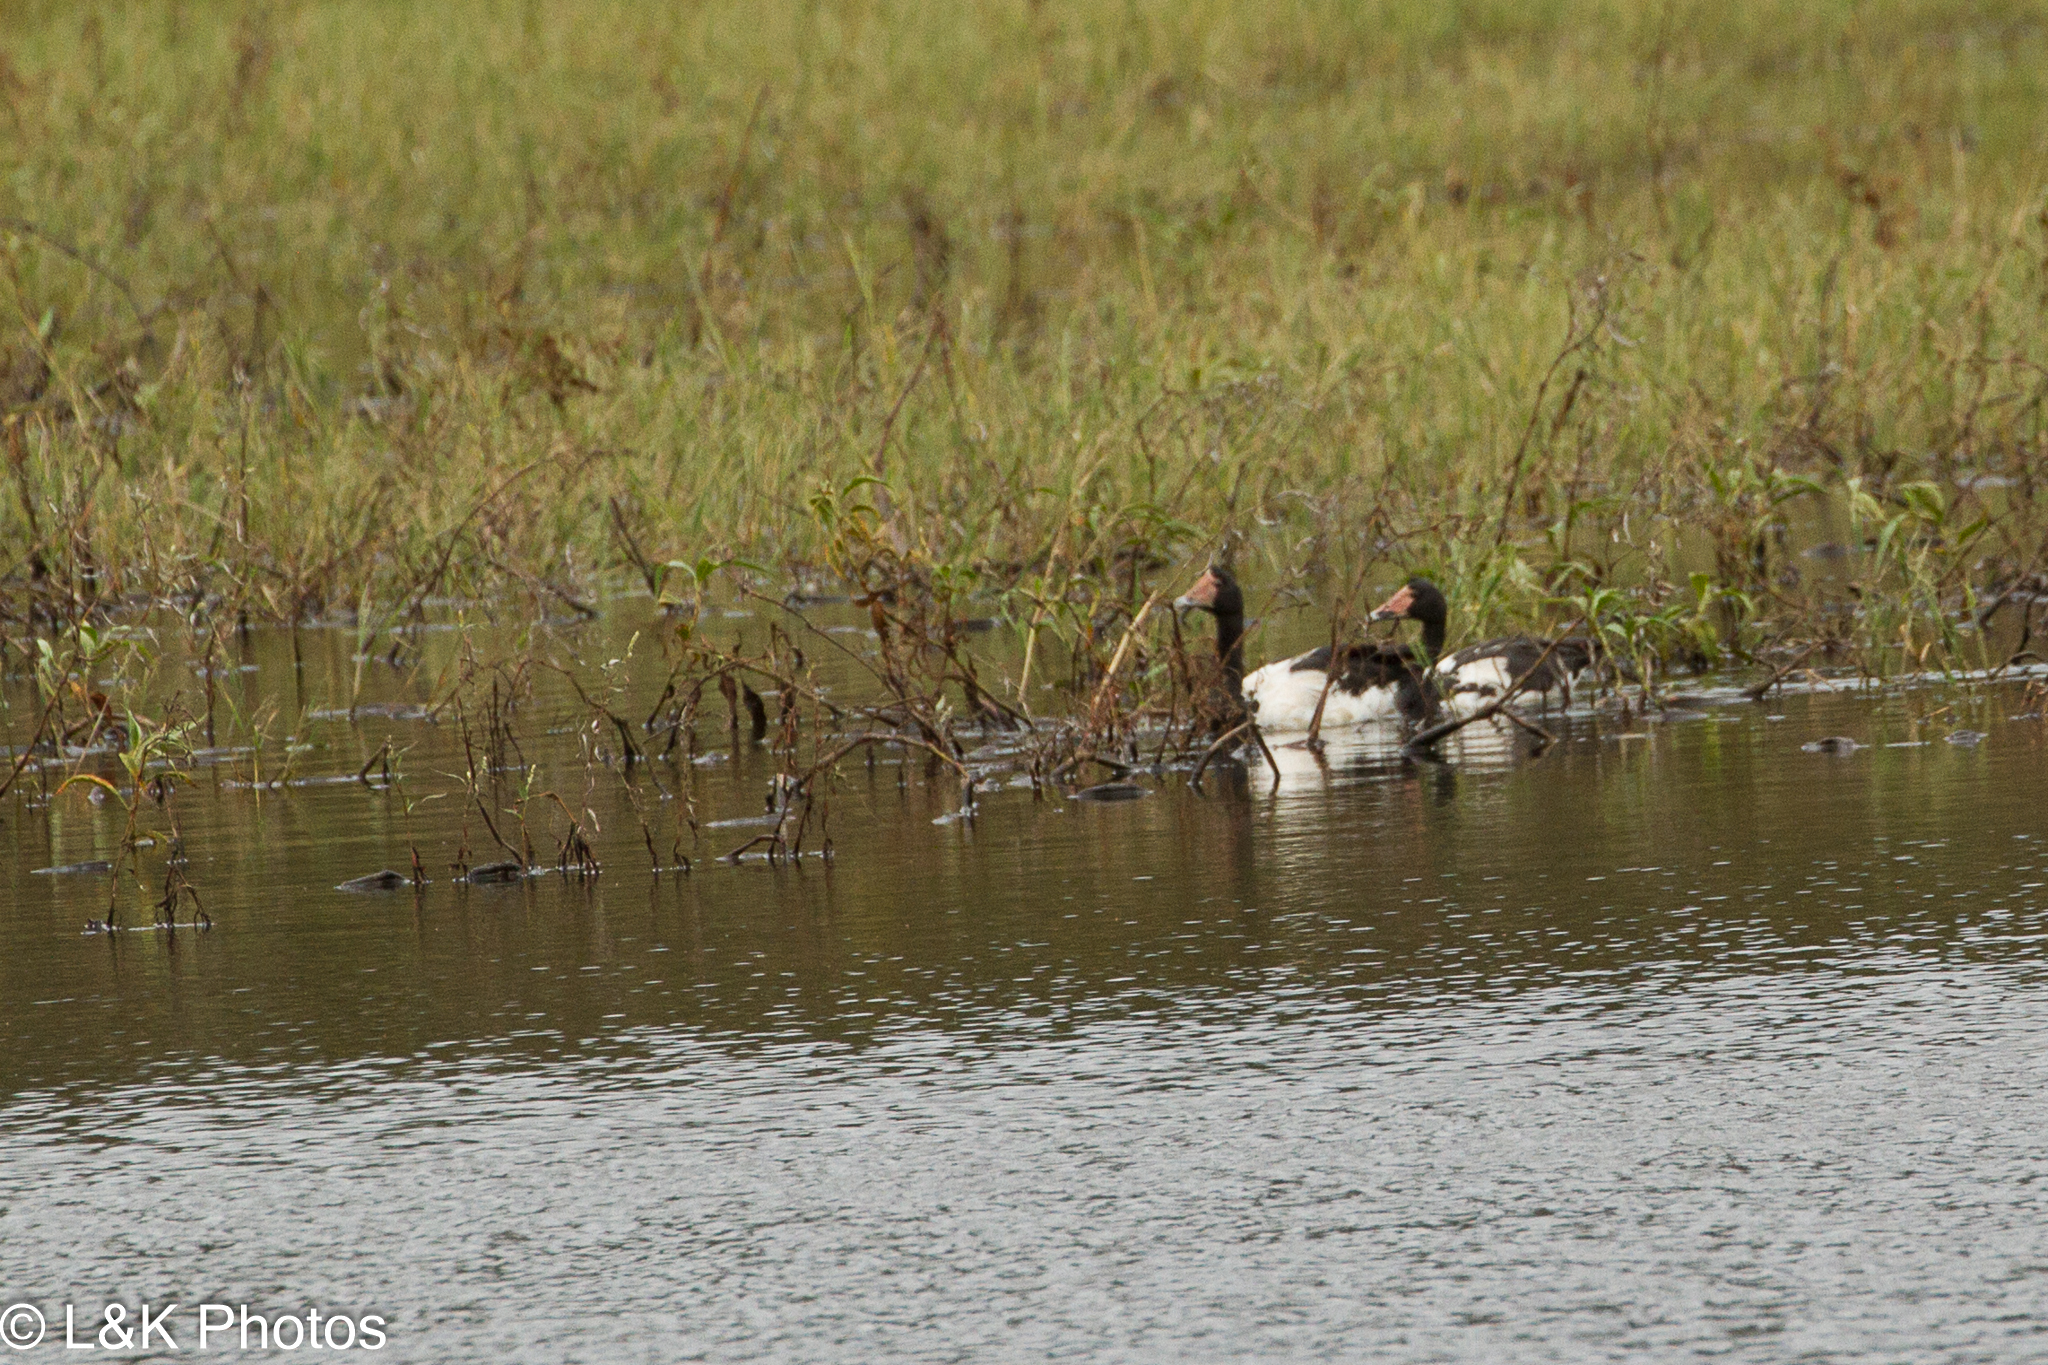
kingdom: Animalia
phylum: Chordata
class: Aves
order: Anseriformes
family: Anseranatidae
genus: Anseranas
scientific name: Anseranas semipalmata
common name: Magpie goose
